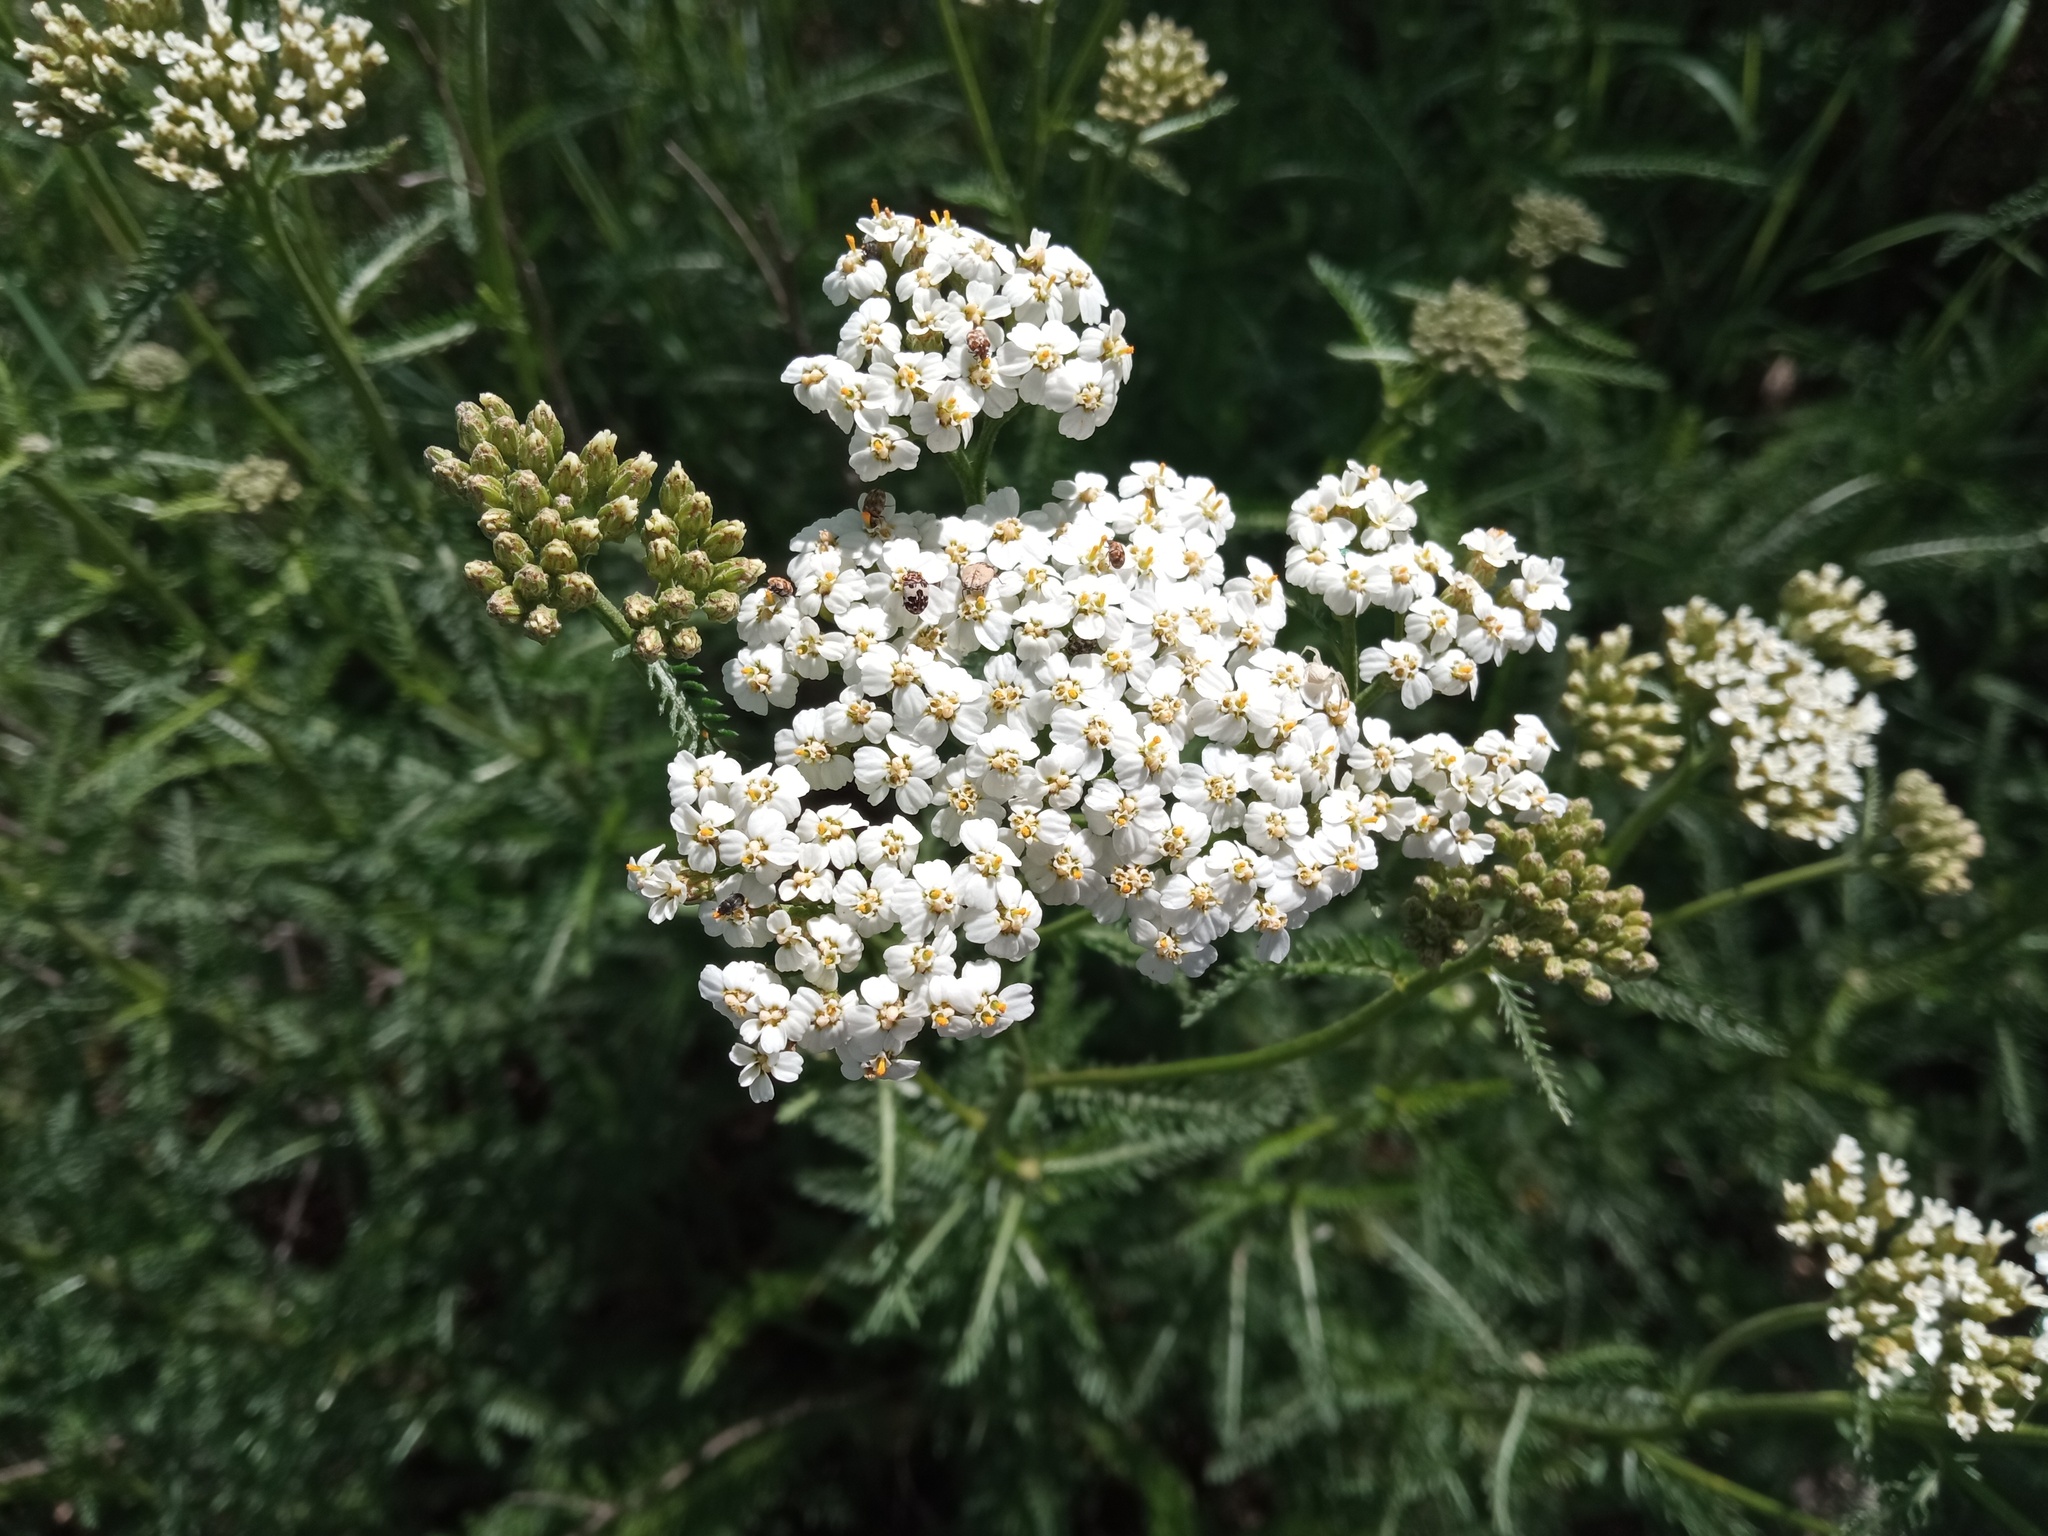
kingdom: Plantae
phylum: Tracheophyta
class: Magnoliopsida
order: Asterales
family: Asteraceae
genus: Achillea
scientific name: Achillea millefolium
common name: Yarrow
